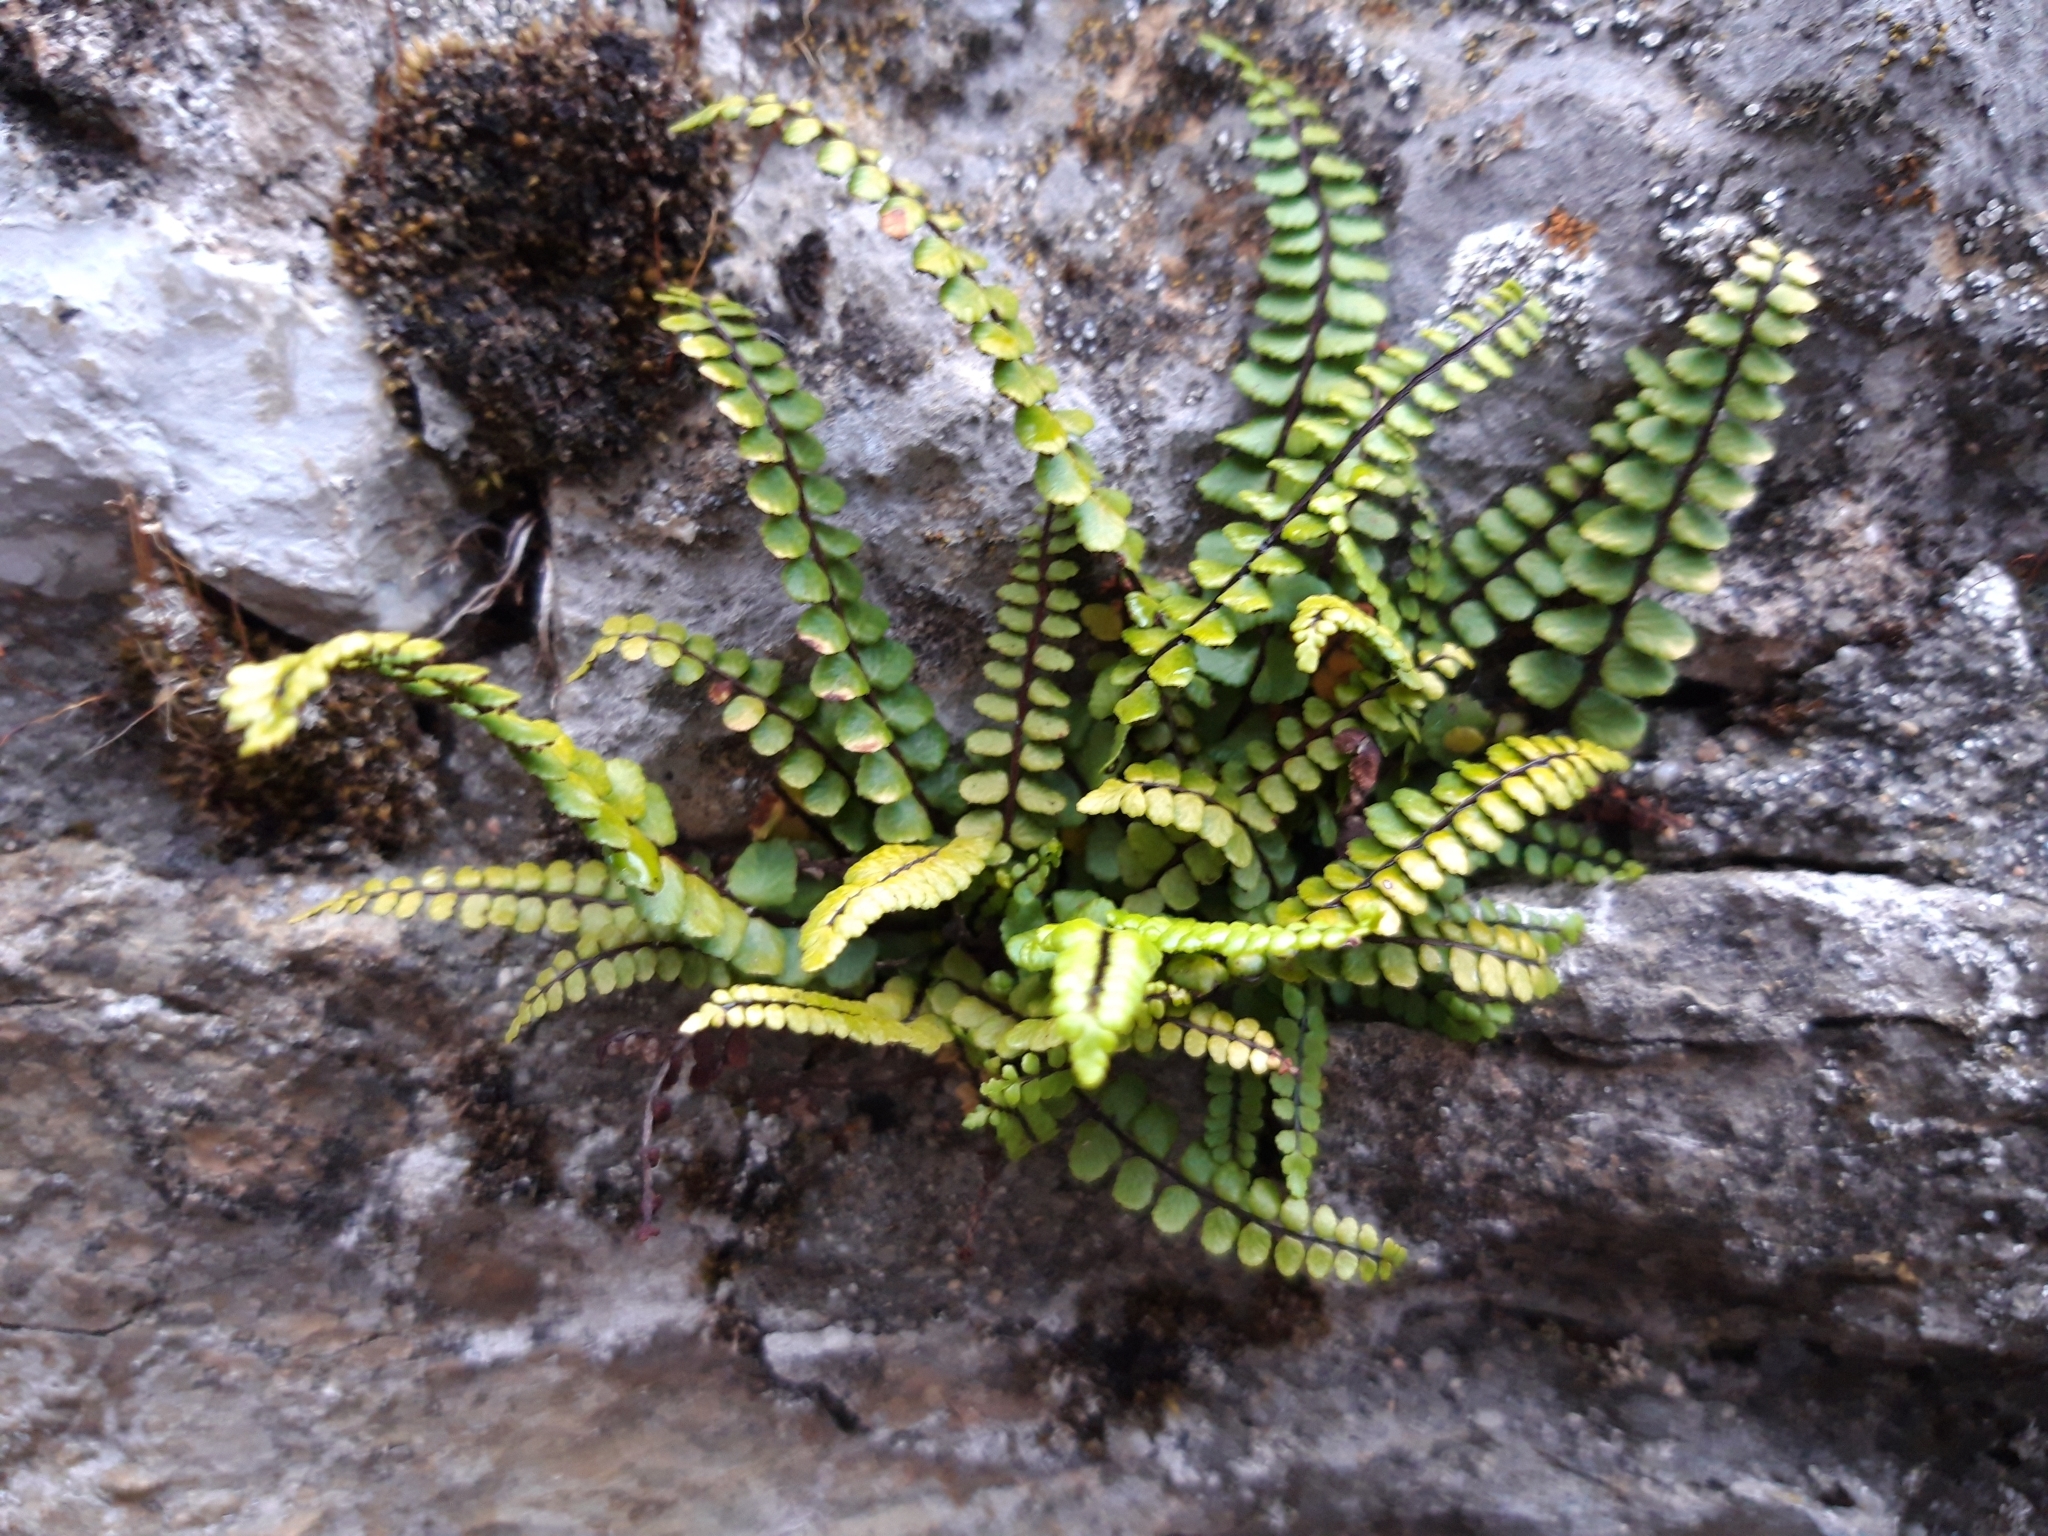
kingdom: Plantae
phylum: Tracheophyta
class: Polypodiopsida
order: Polypodiales
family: Aspleniaceae
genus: Asplenium
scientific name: Asplenium trichomanes
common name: Maidenhair spleenwort
